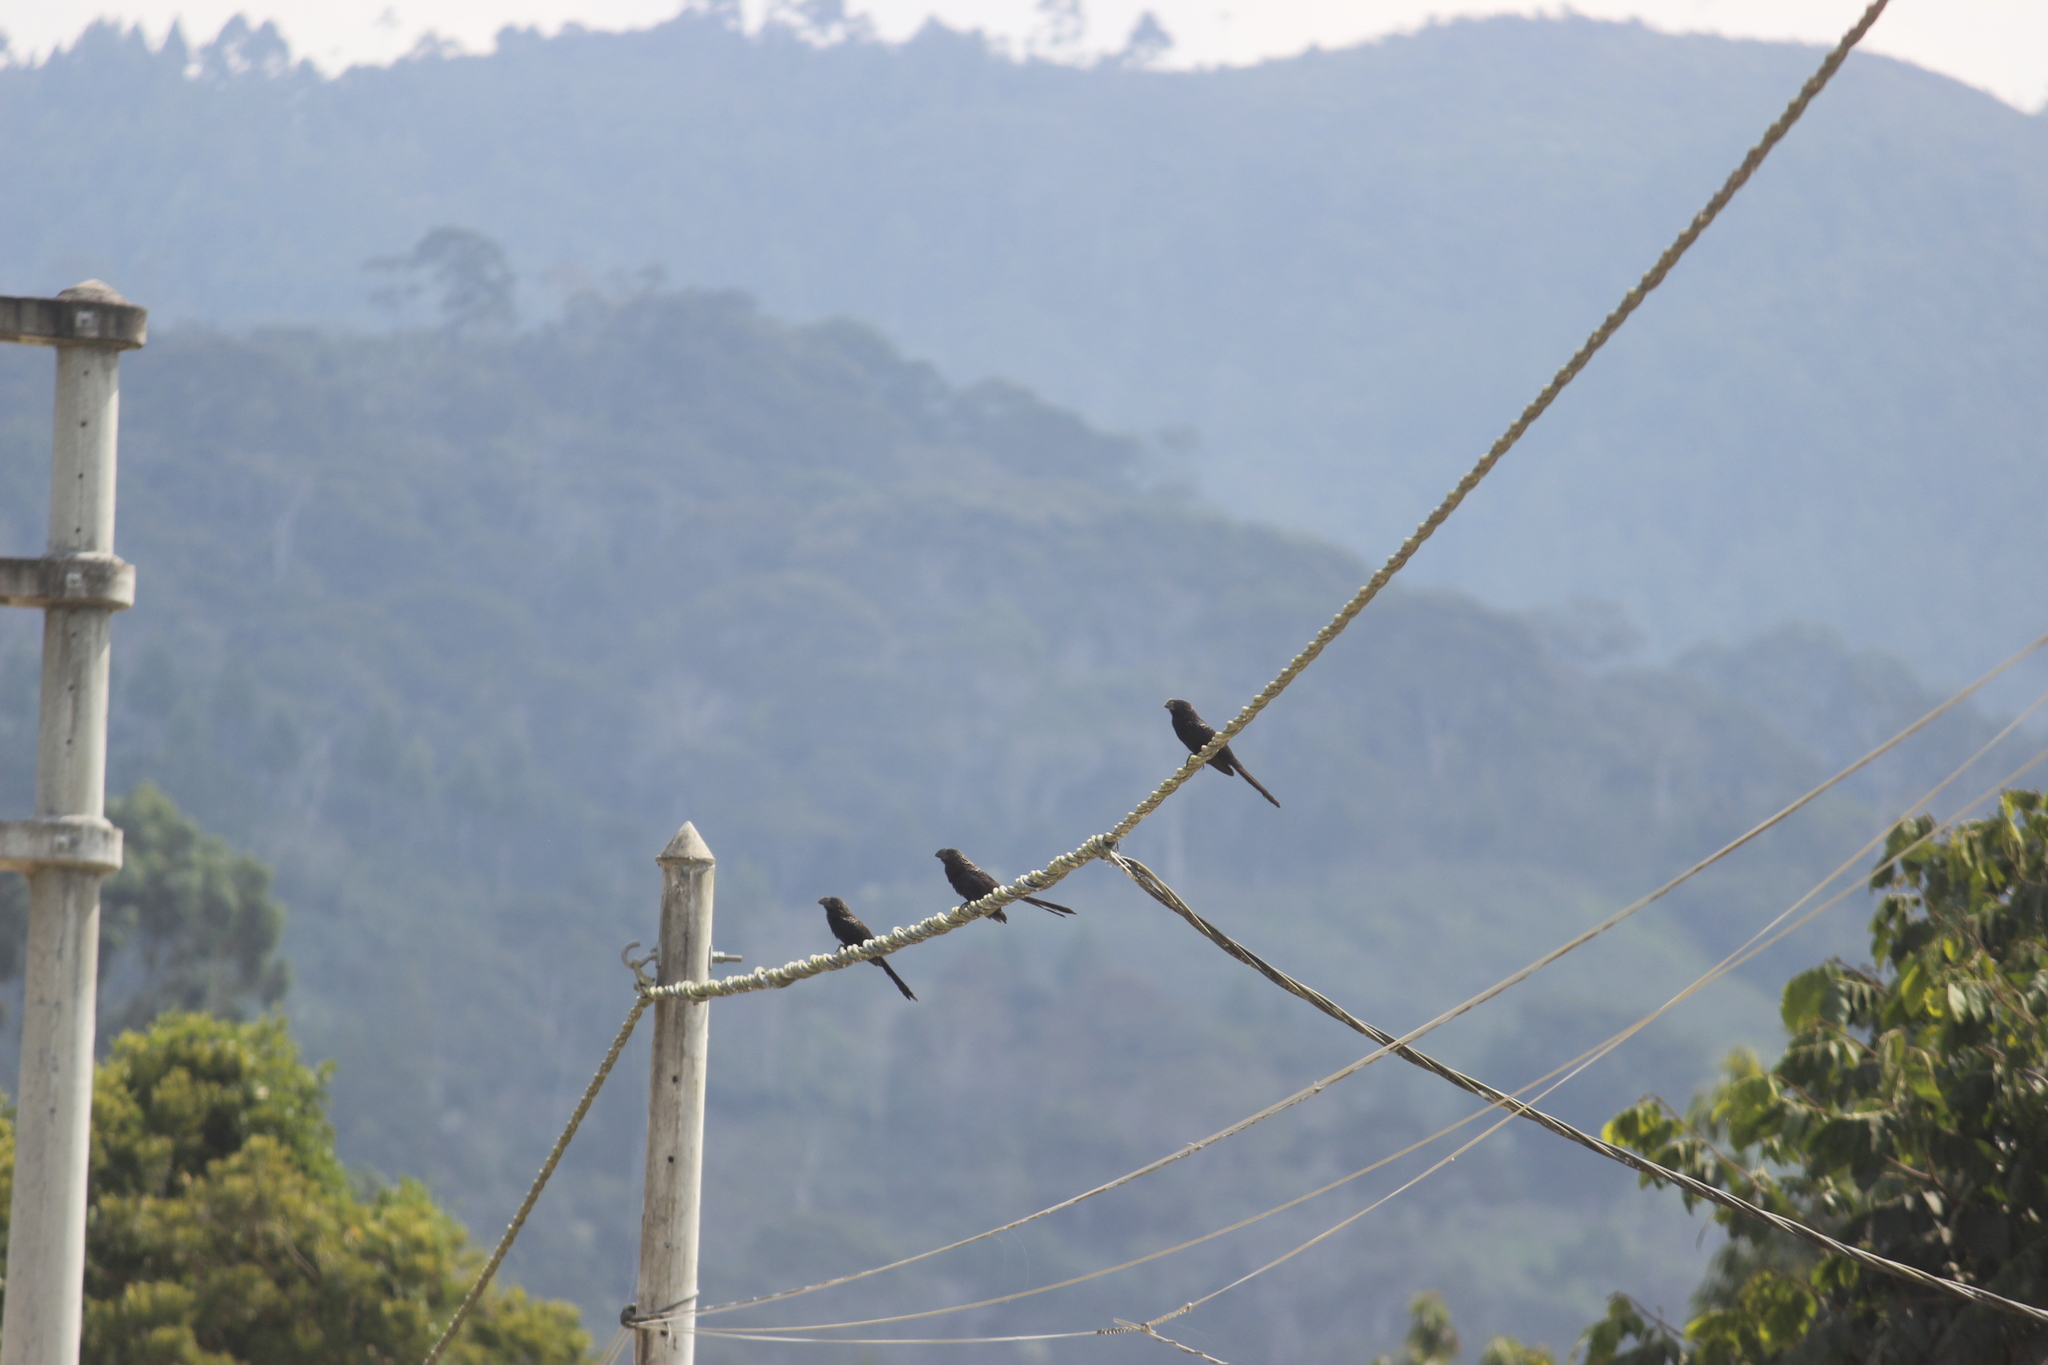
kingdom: Animalia
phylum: Chordata
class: Aves
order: Cuculiformes
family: Cuculidae
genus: Crotophaga
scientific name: Crotophaga ani
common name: Smooth-billed ani
